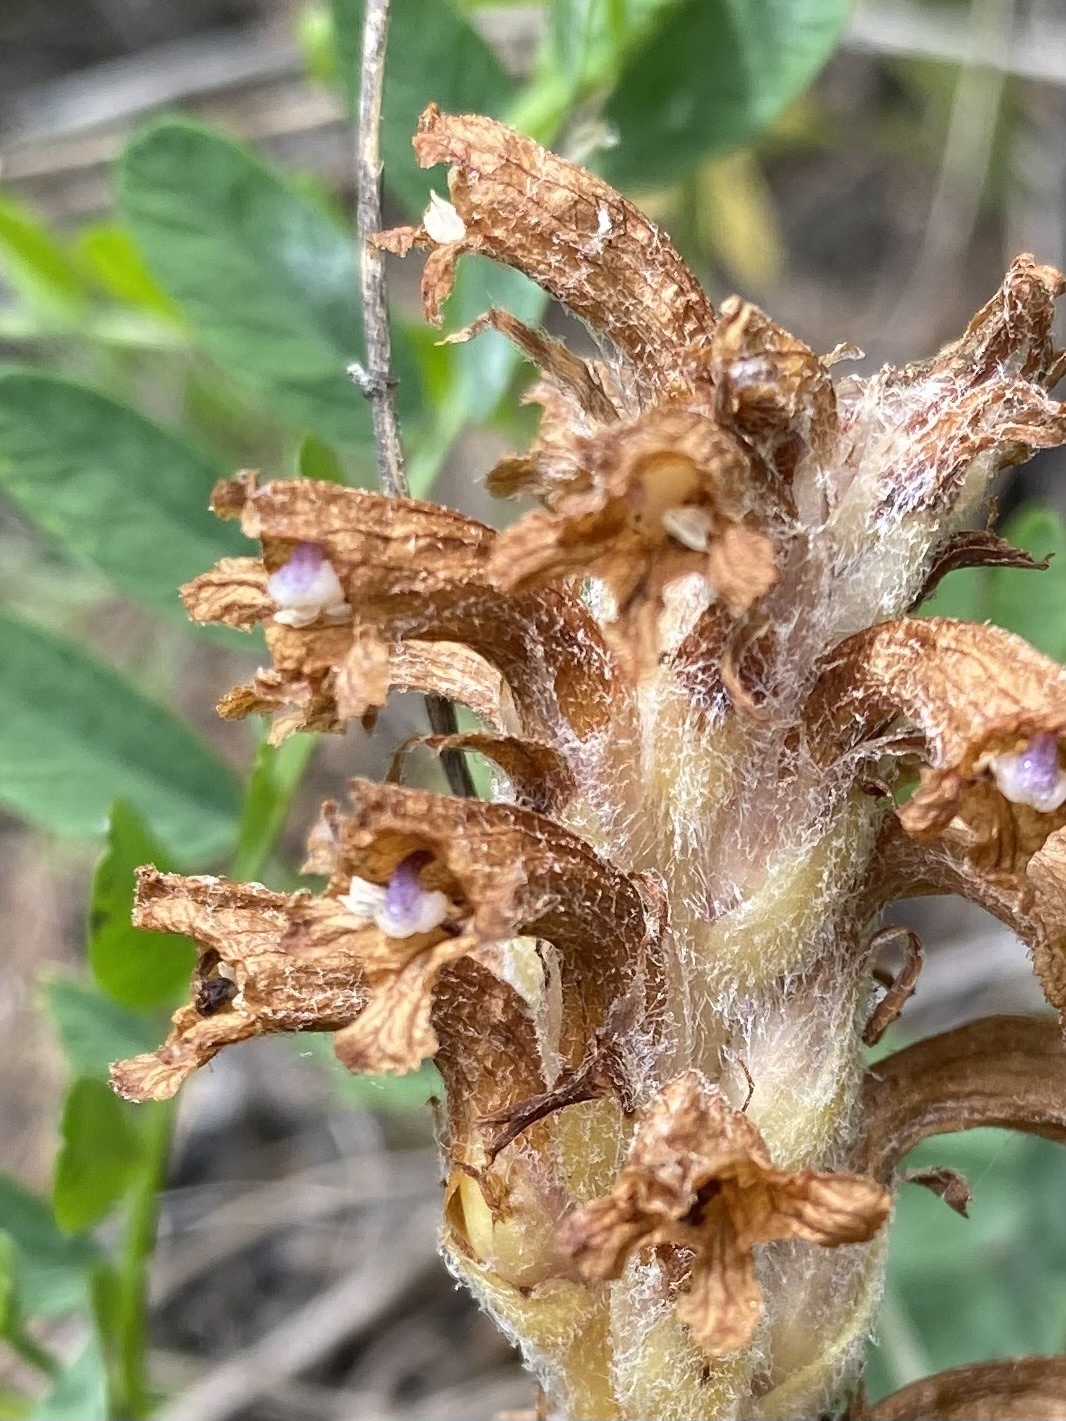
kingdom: Plantae
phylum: Tracheophyta
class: Magnoliopsida
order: Lamiales
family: Orobanchaceae
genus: Orobanche
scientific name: Orobanche coerulescens
